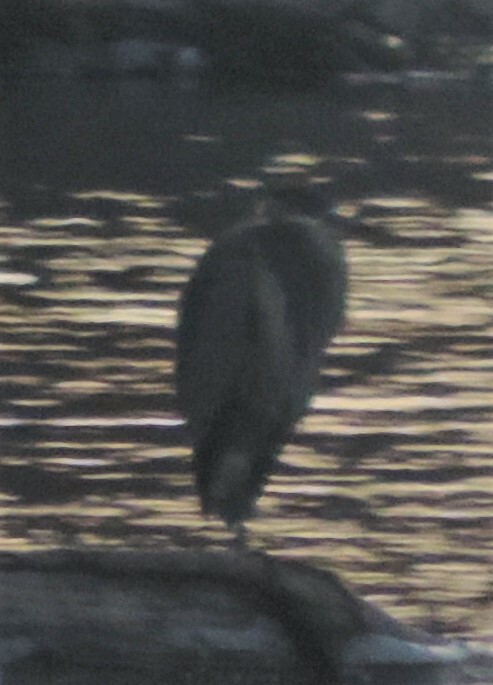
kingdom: Animalia
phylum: Chordata
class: Aves
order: Pelecaniformes
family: Ardeidae
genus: Ardea
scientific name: Ardea herodias
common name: Great blue heron
